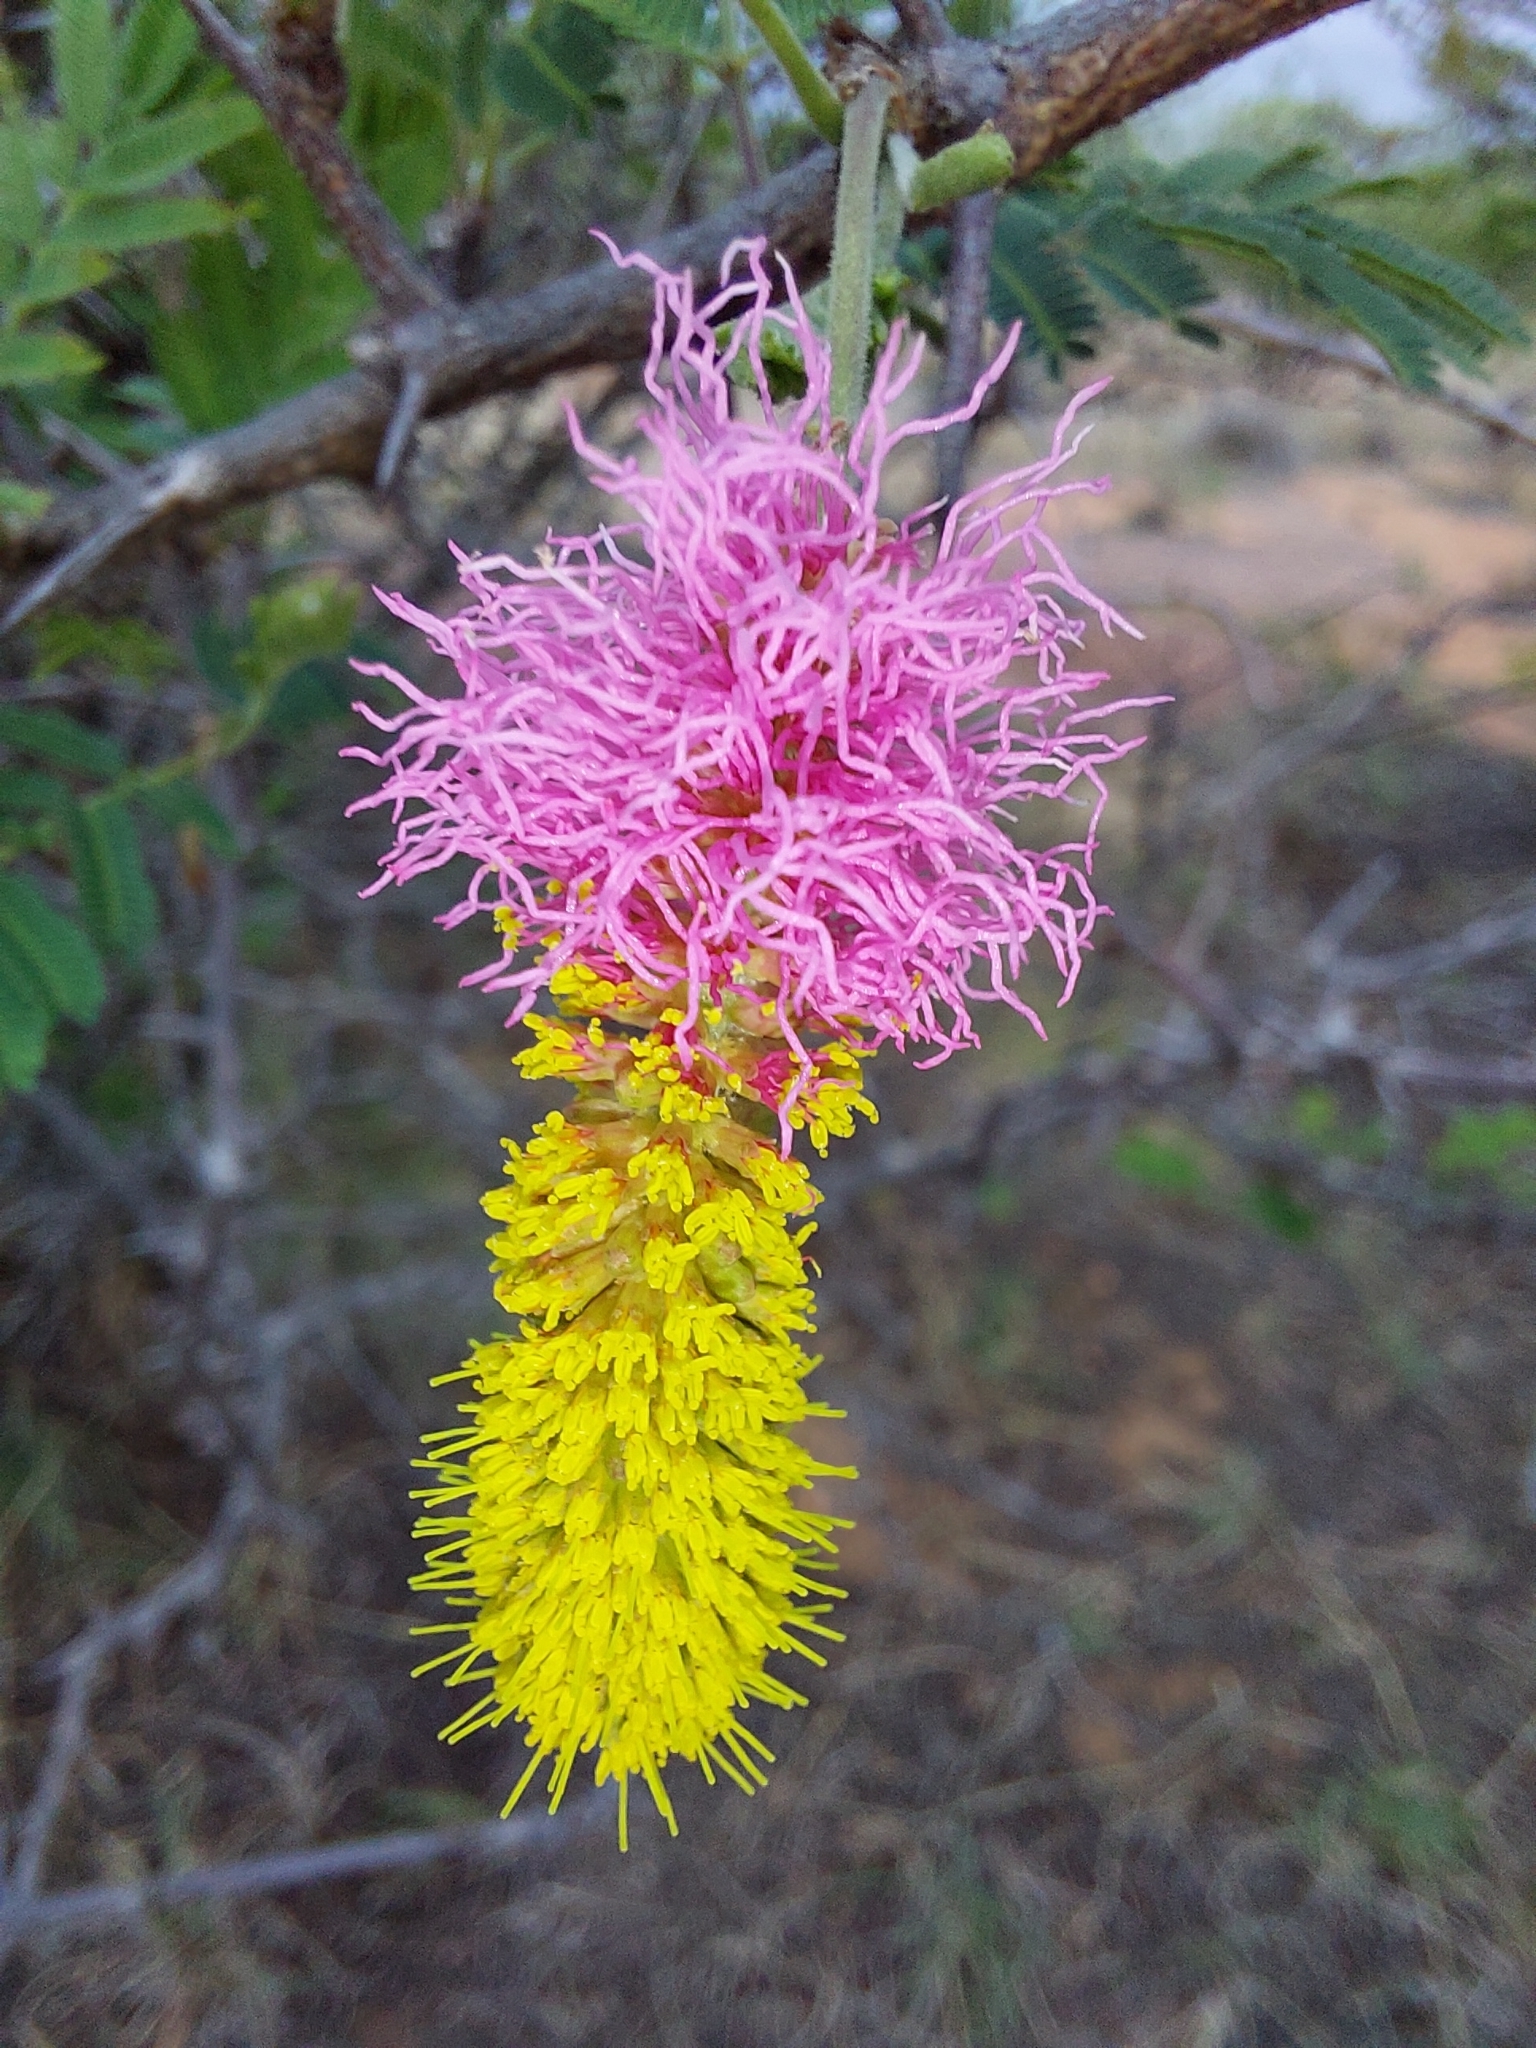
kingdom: Plantae
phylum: Tracheophyta
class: Magnoliopsida
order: Fabales
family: Fabaceae
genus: Dichrostachys
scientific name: Dichrostachys cinerea
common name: Sicklebush
